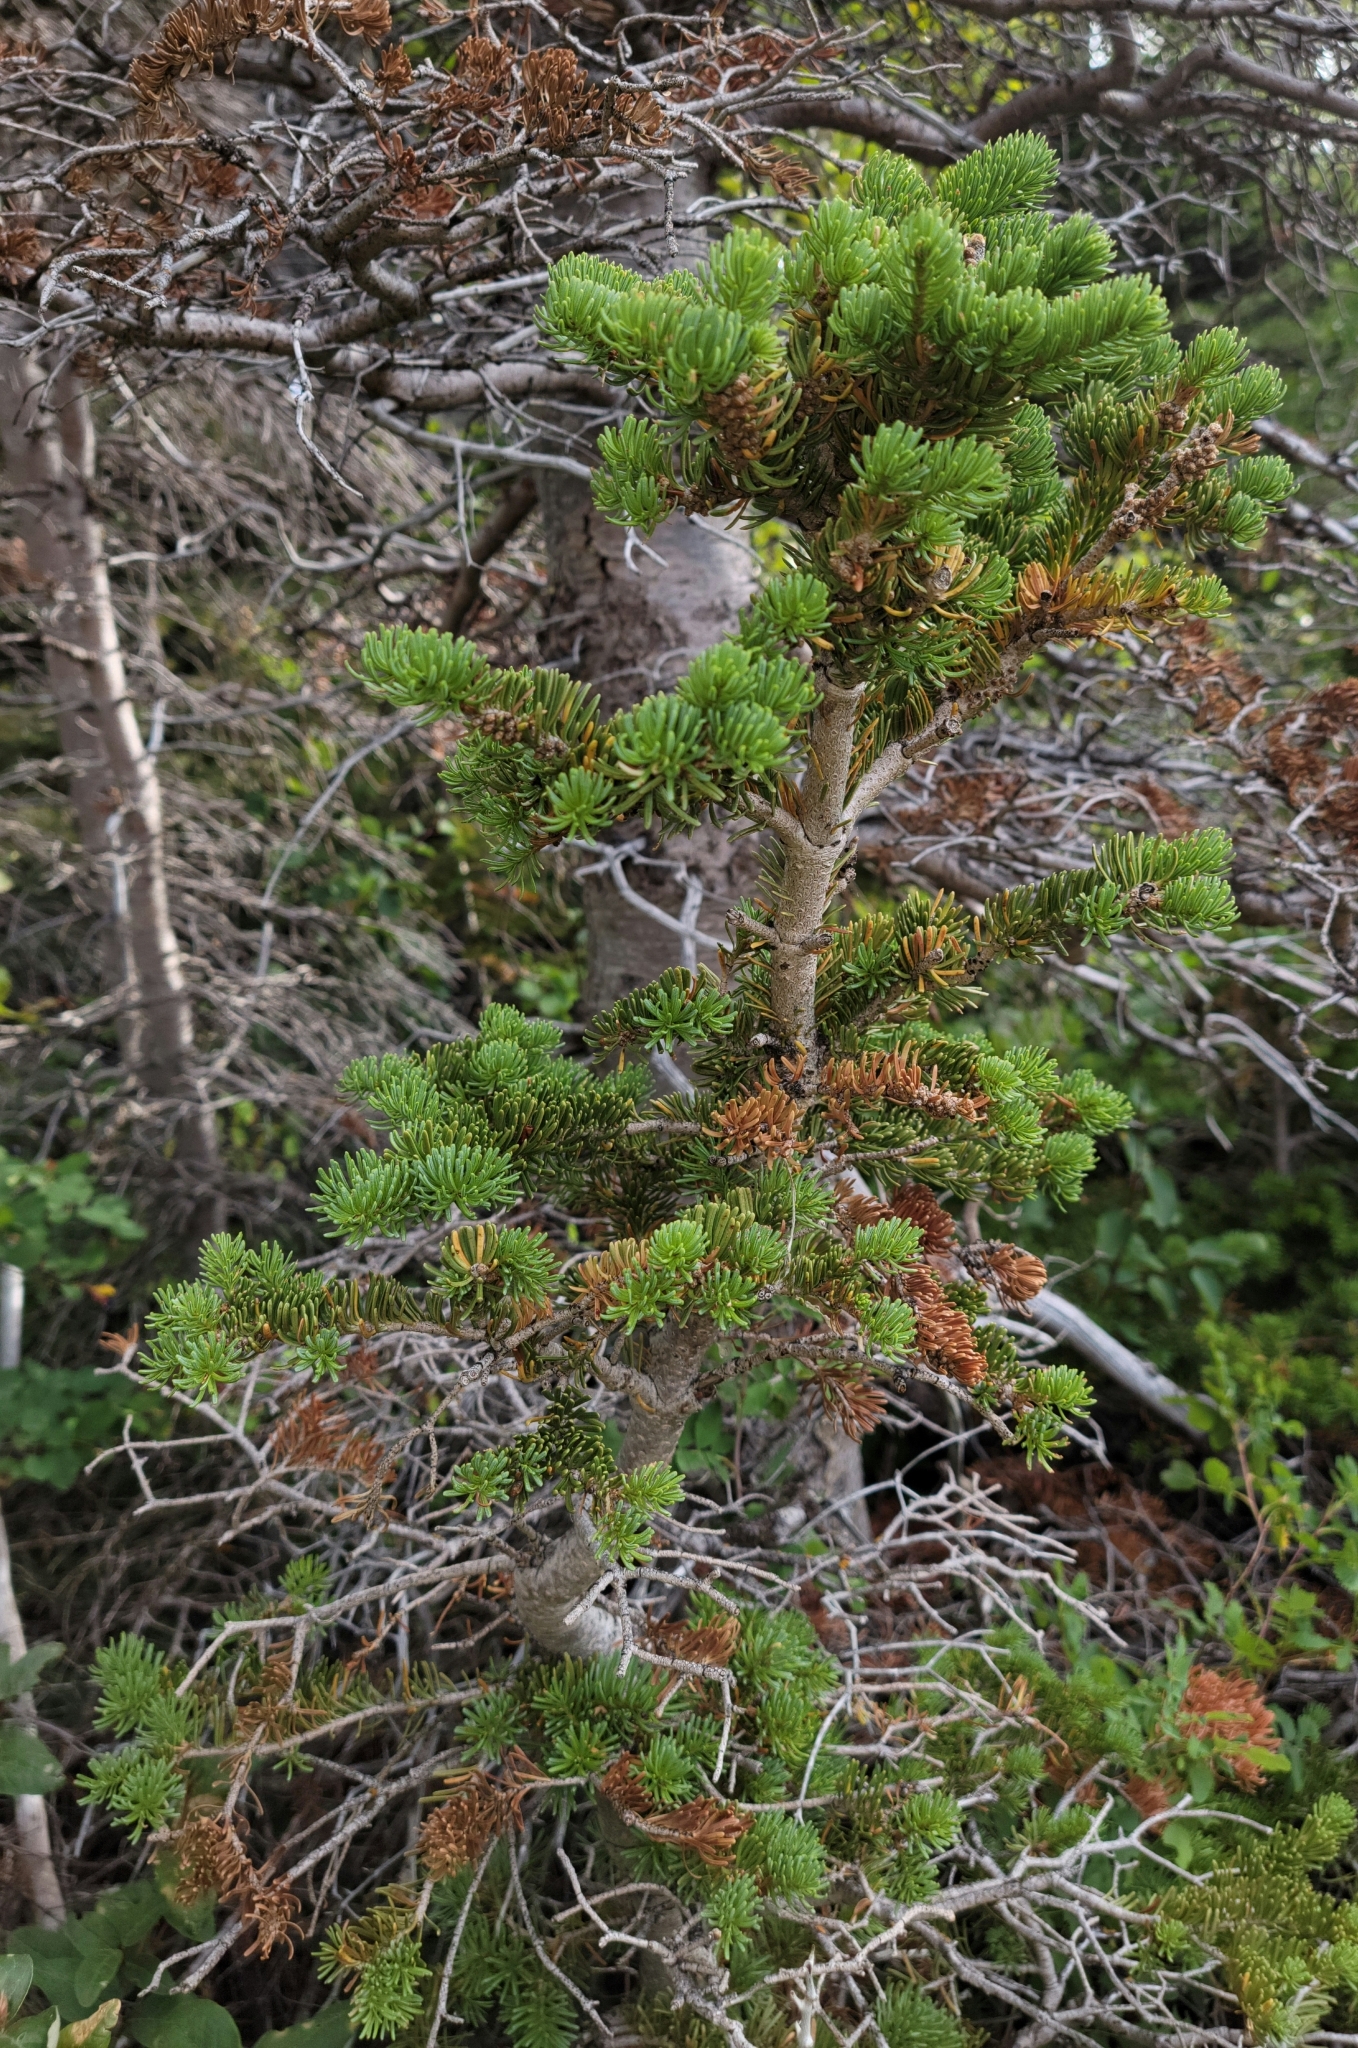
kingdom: Plantae
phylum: Tracheophyta
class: Pinopsida
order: Pinales
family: Pinaceae
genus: Abies
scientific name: Abies lasiocarpa
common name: Subalpine fir
